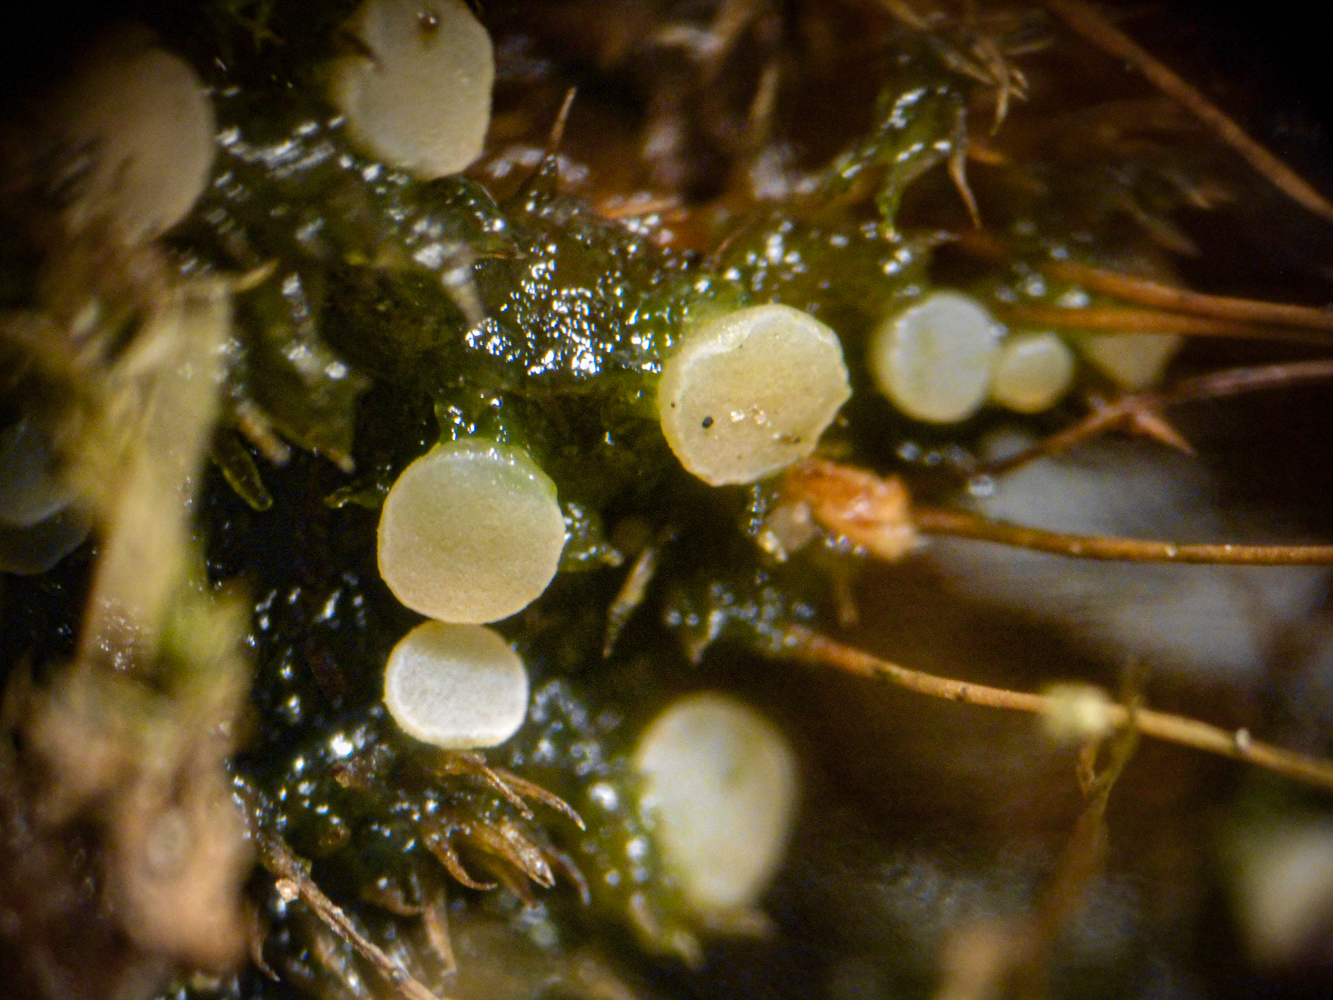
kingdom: Fungi
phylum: Ascomycota
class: Leotiomycetes
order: Helotiales
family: Helotiaceae
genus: Bryoscyphus
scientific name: Bryoscyphus dicrani
